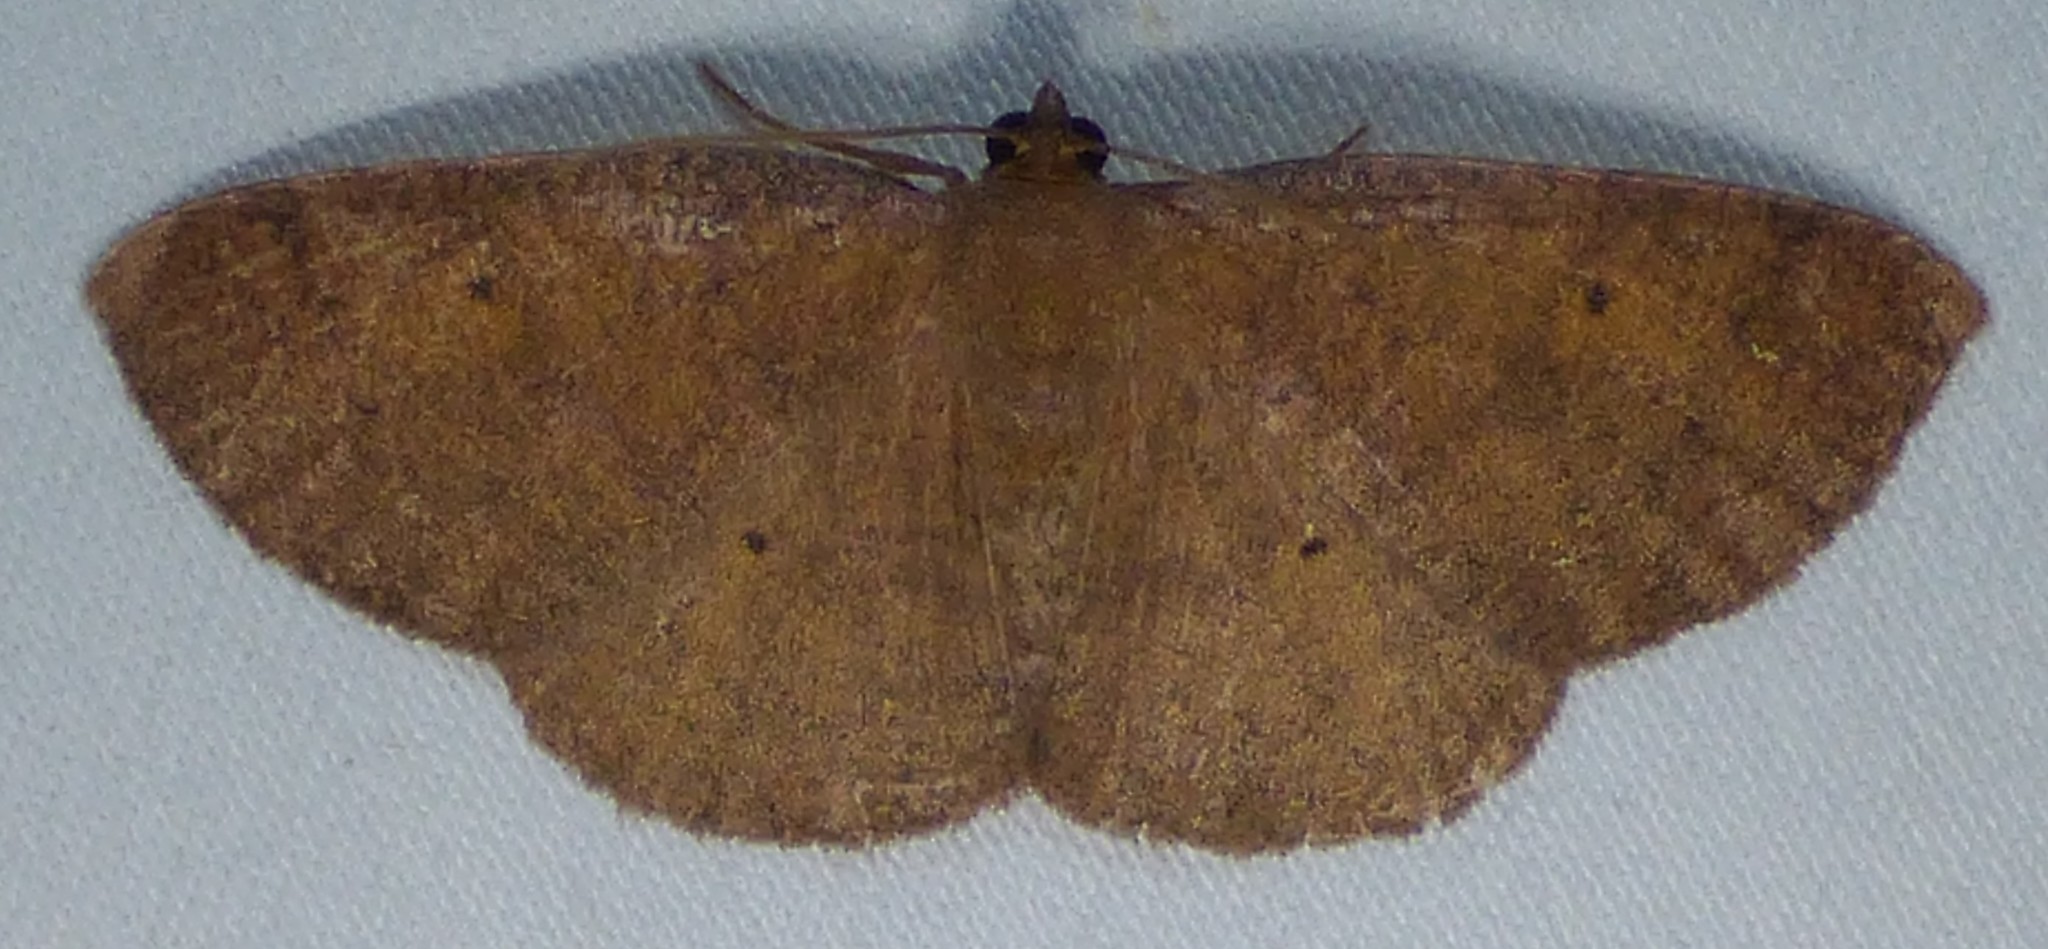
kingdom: Animalia
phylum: Arthropoda
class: Insecta
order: Lepidoptera
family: Geometridae
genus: Ilexia
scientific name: Ilexia intractata
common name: Black-dotted ruddy moth
